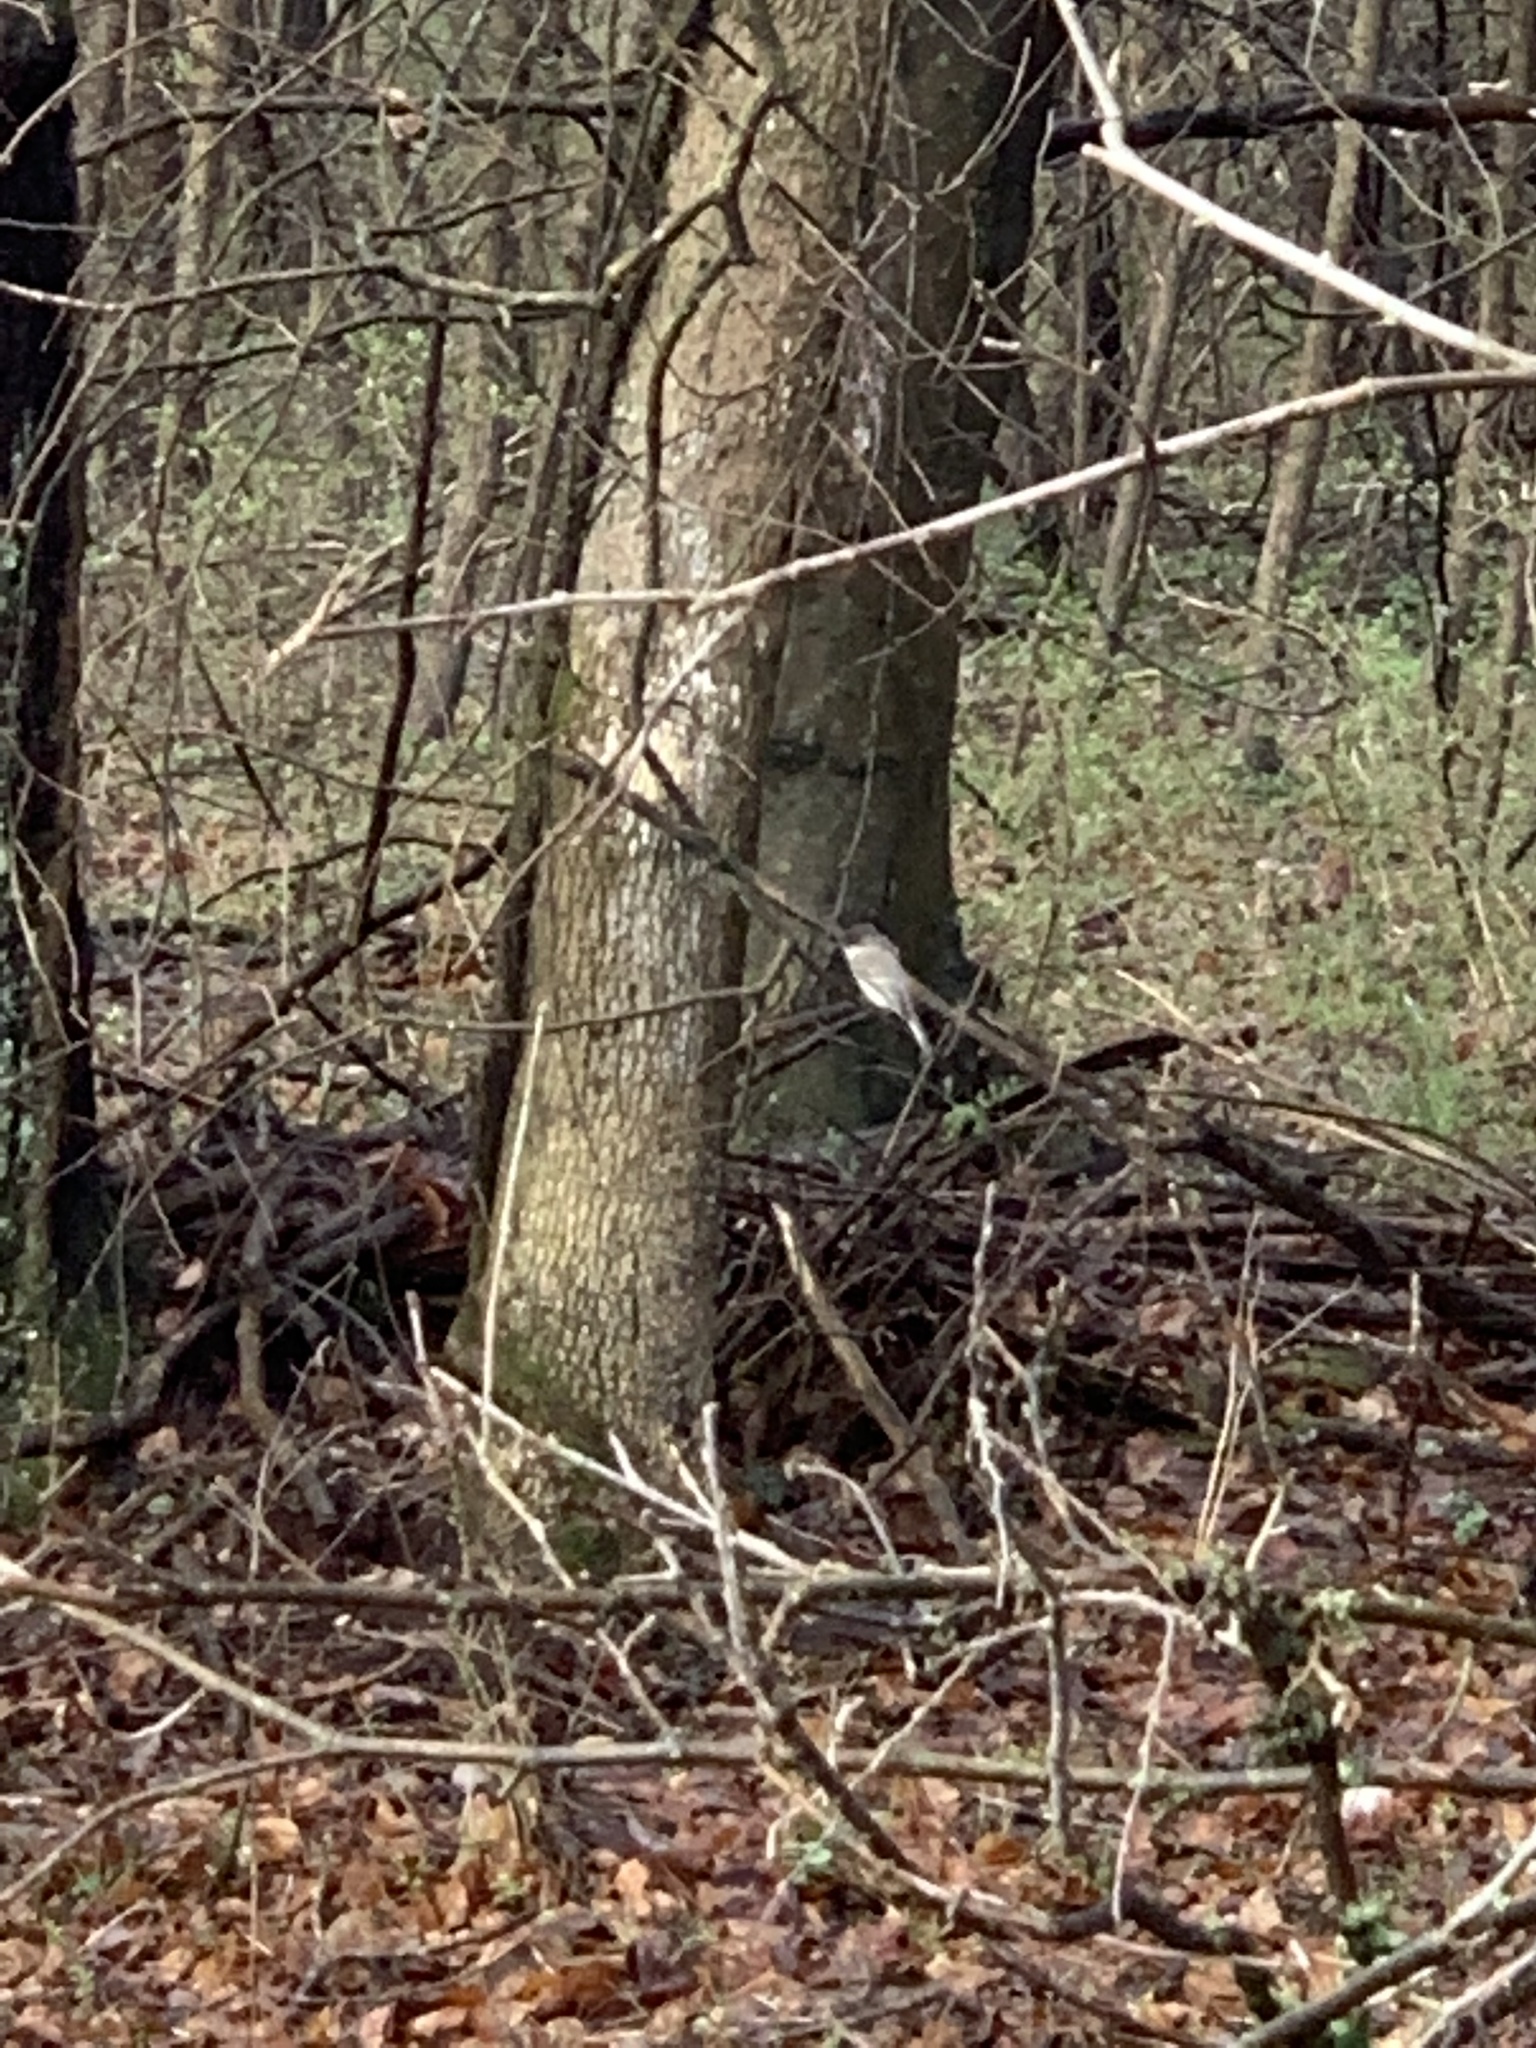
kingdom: Animalia
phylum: Chordata
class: Aves
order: Passeriformes
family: Tyrannidae
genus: Sayornis
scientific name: Sayornis phoebe
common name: Eastern phoebe
